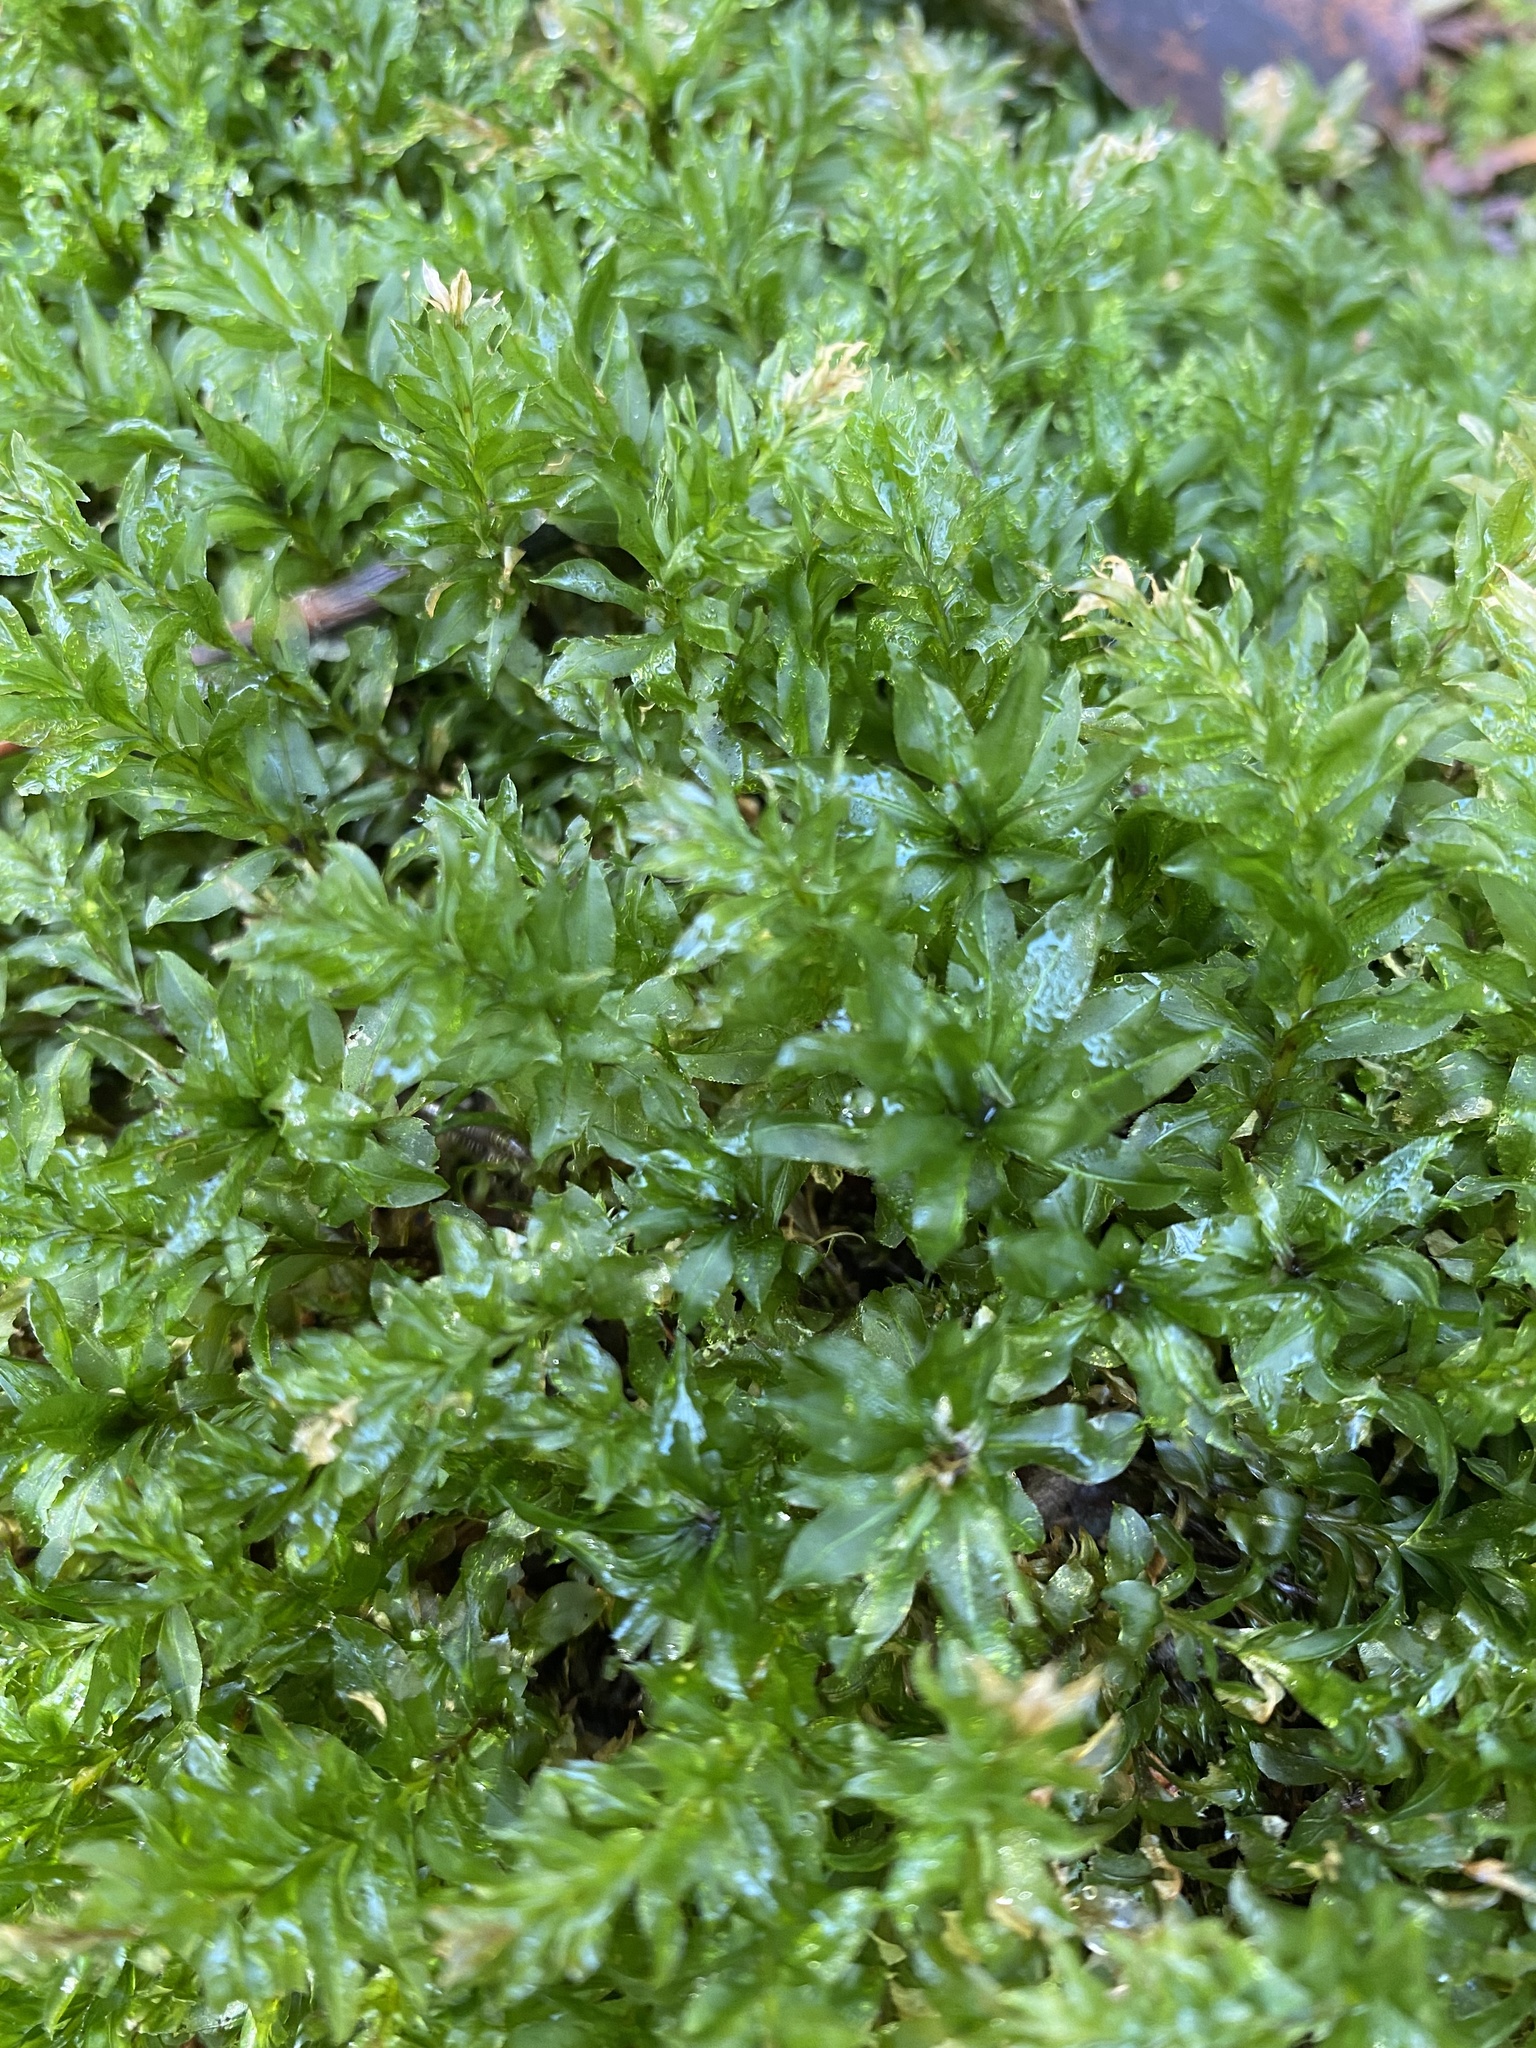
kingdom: Plantae
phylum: Bryophyta
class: Bryopsida
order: Bryales
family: Mniaceae
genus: Plagiomnium
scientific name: Plagiomnium insigne
